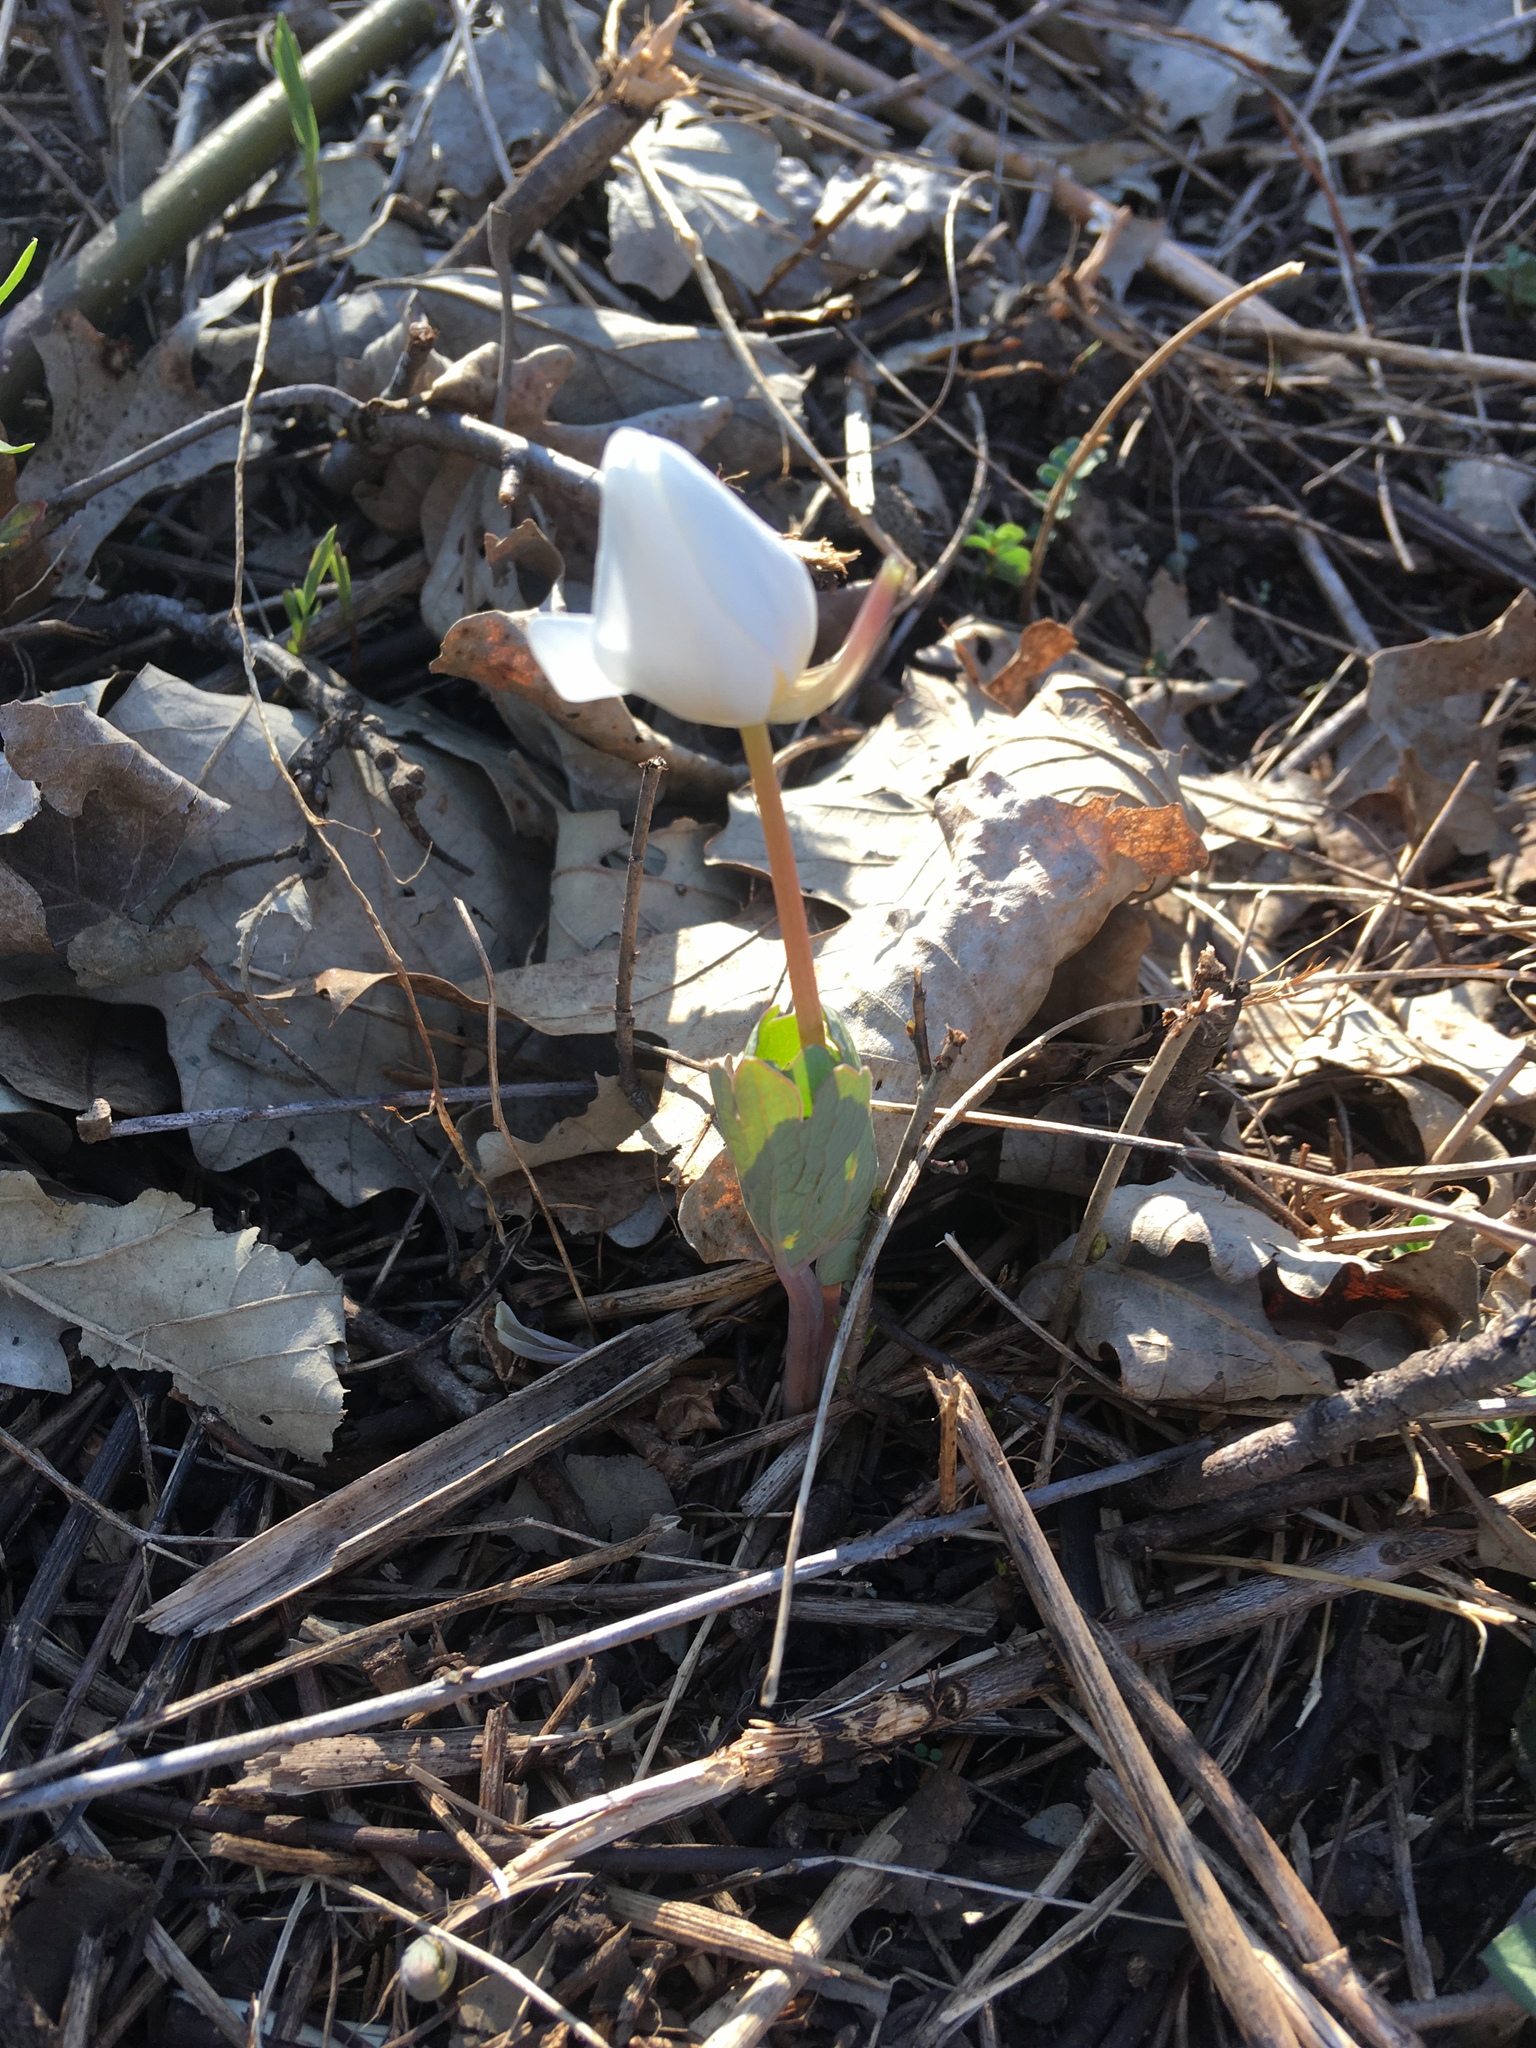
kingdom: Plantae
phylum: Tracheophyta
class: Magnoliopsida
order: Ranunculales
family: Papaveraceae
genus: Sanguinaria
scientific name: Sanguinaria canadensis
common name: Bloodroot
